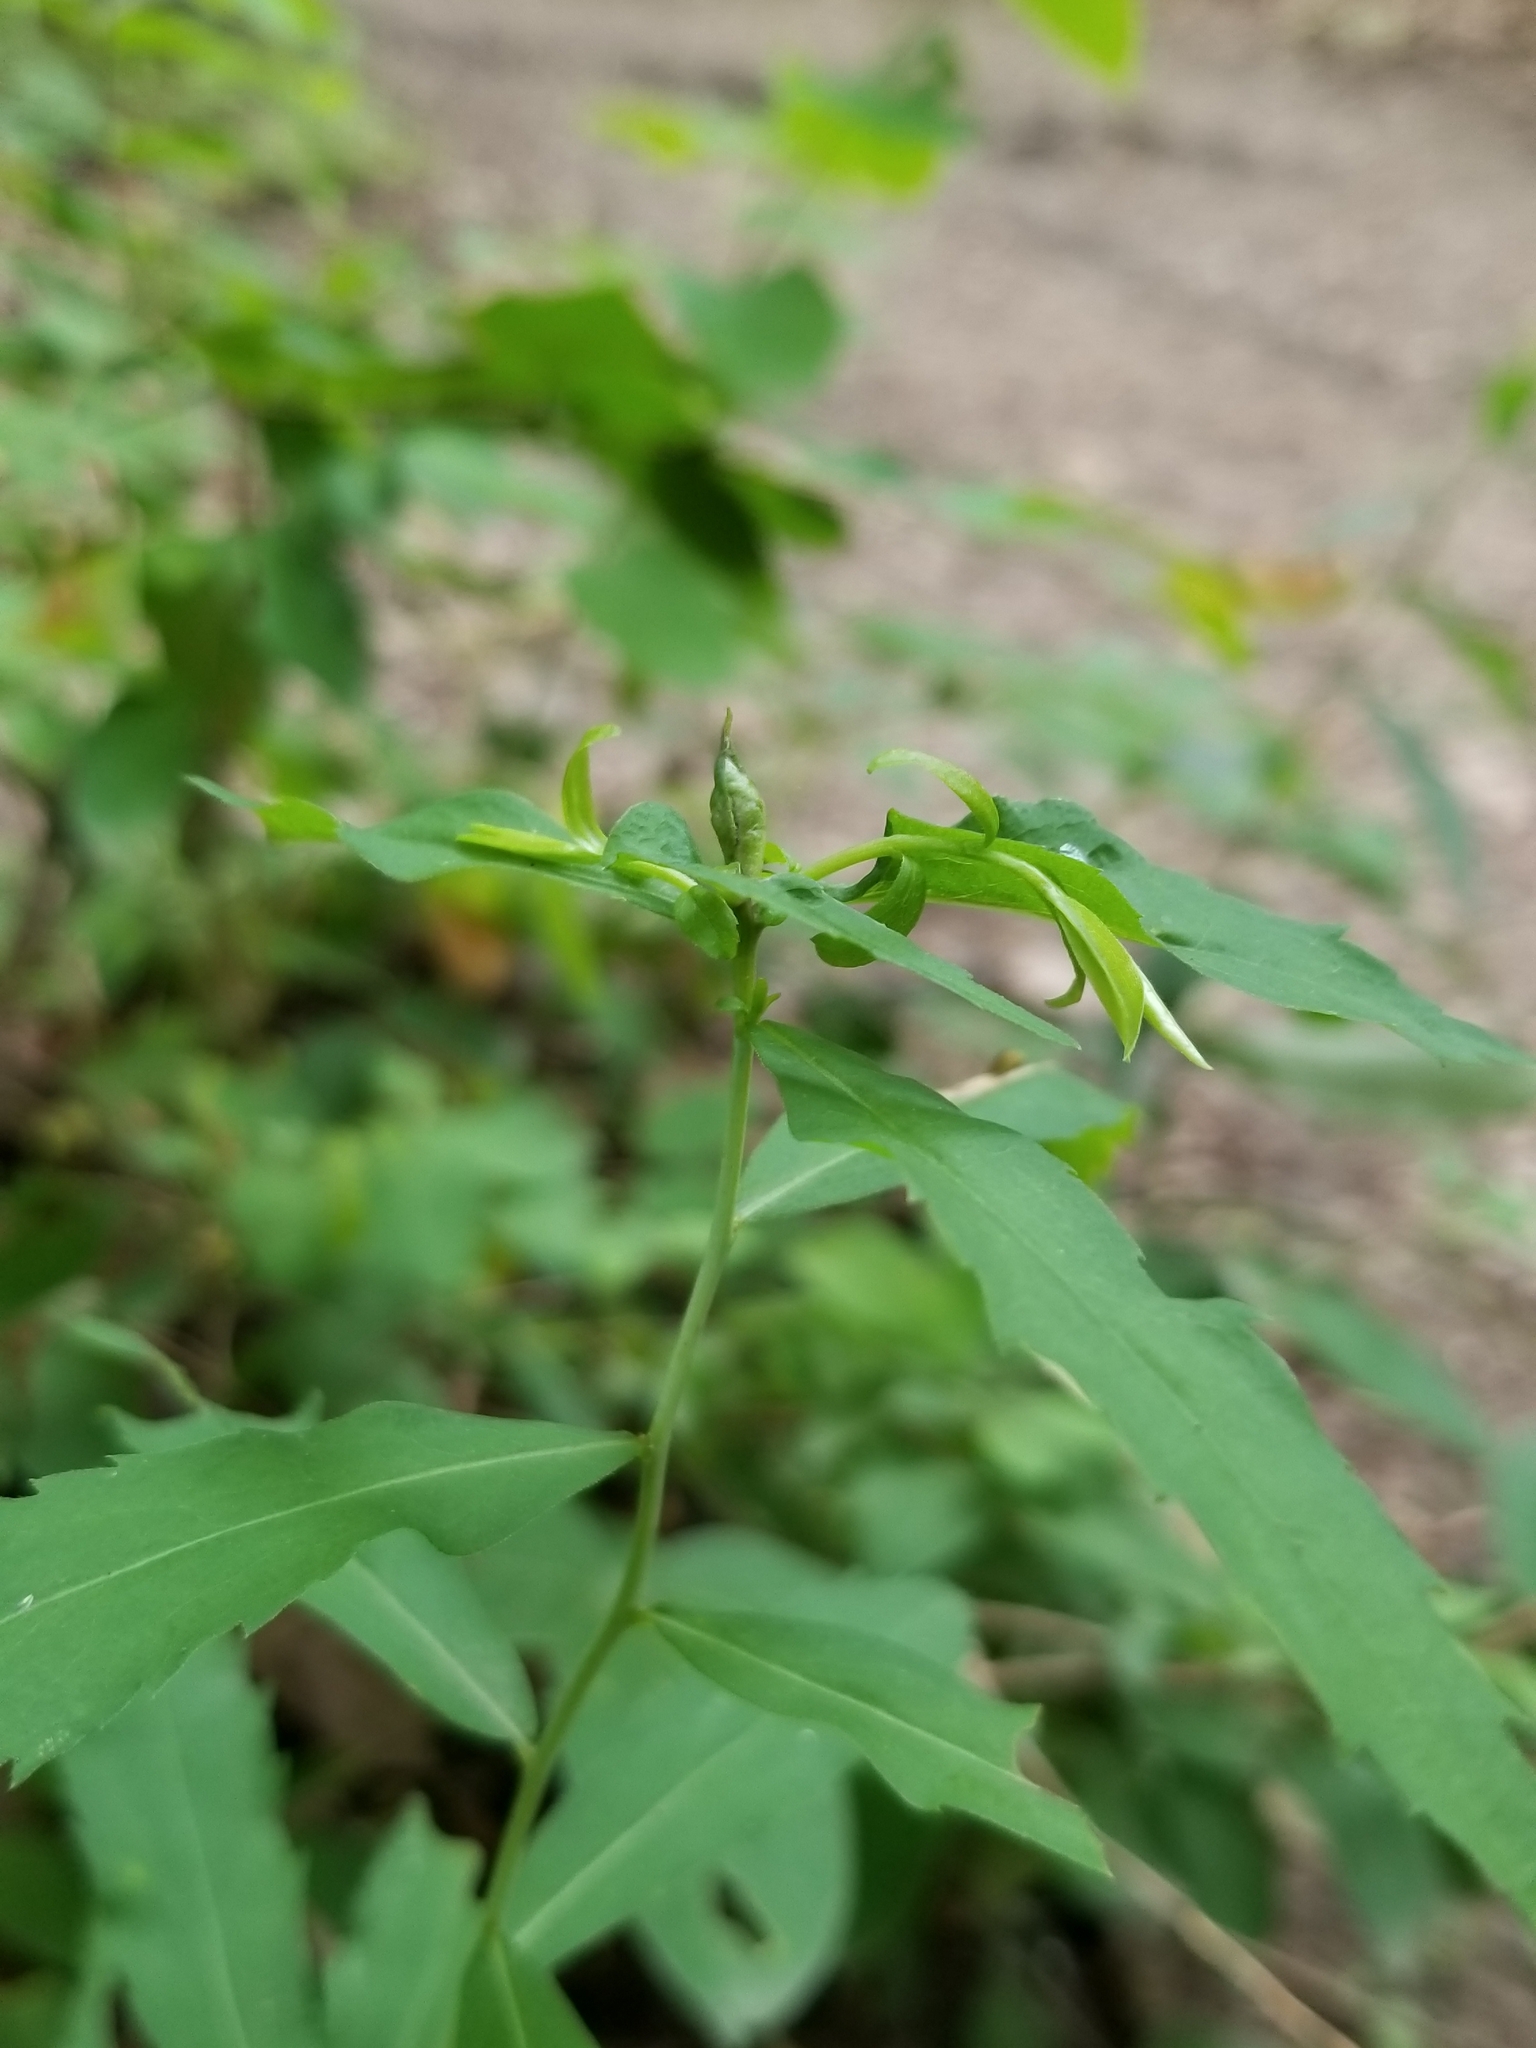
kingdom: Plantae
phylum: Tracheophyta
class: Magnoliopsida
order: Asterales
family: Asteraceae
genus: Solidago
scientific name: Solidago caesia
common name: Woodland goldenrod
